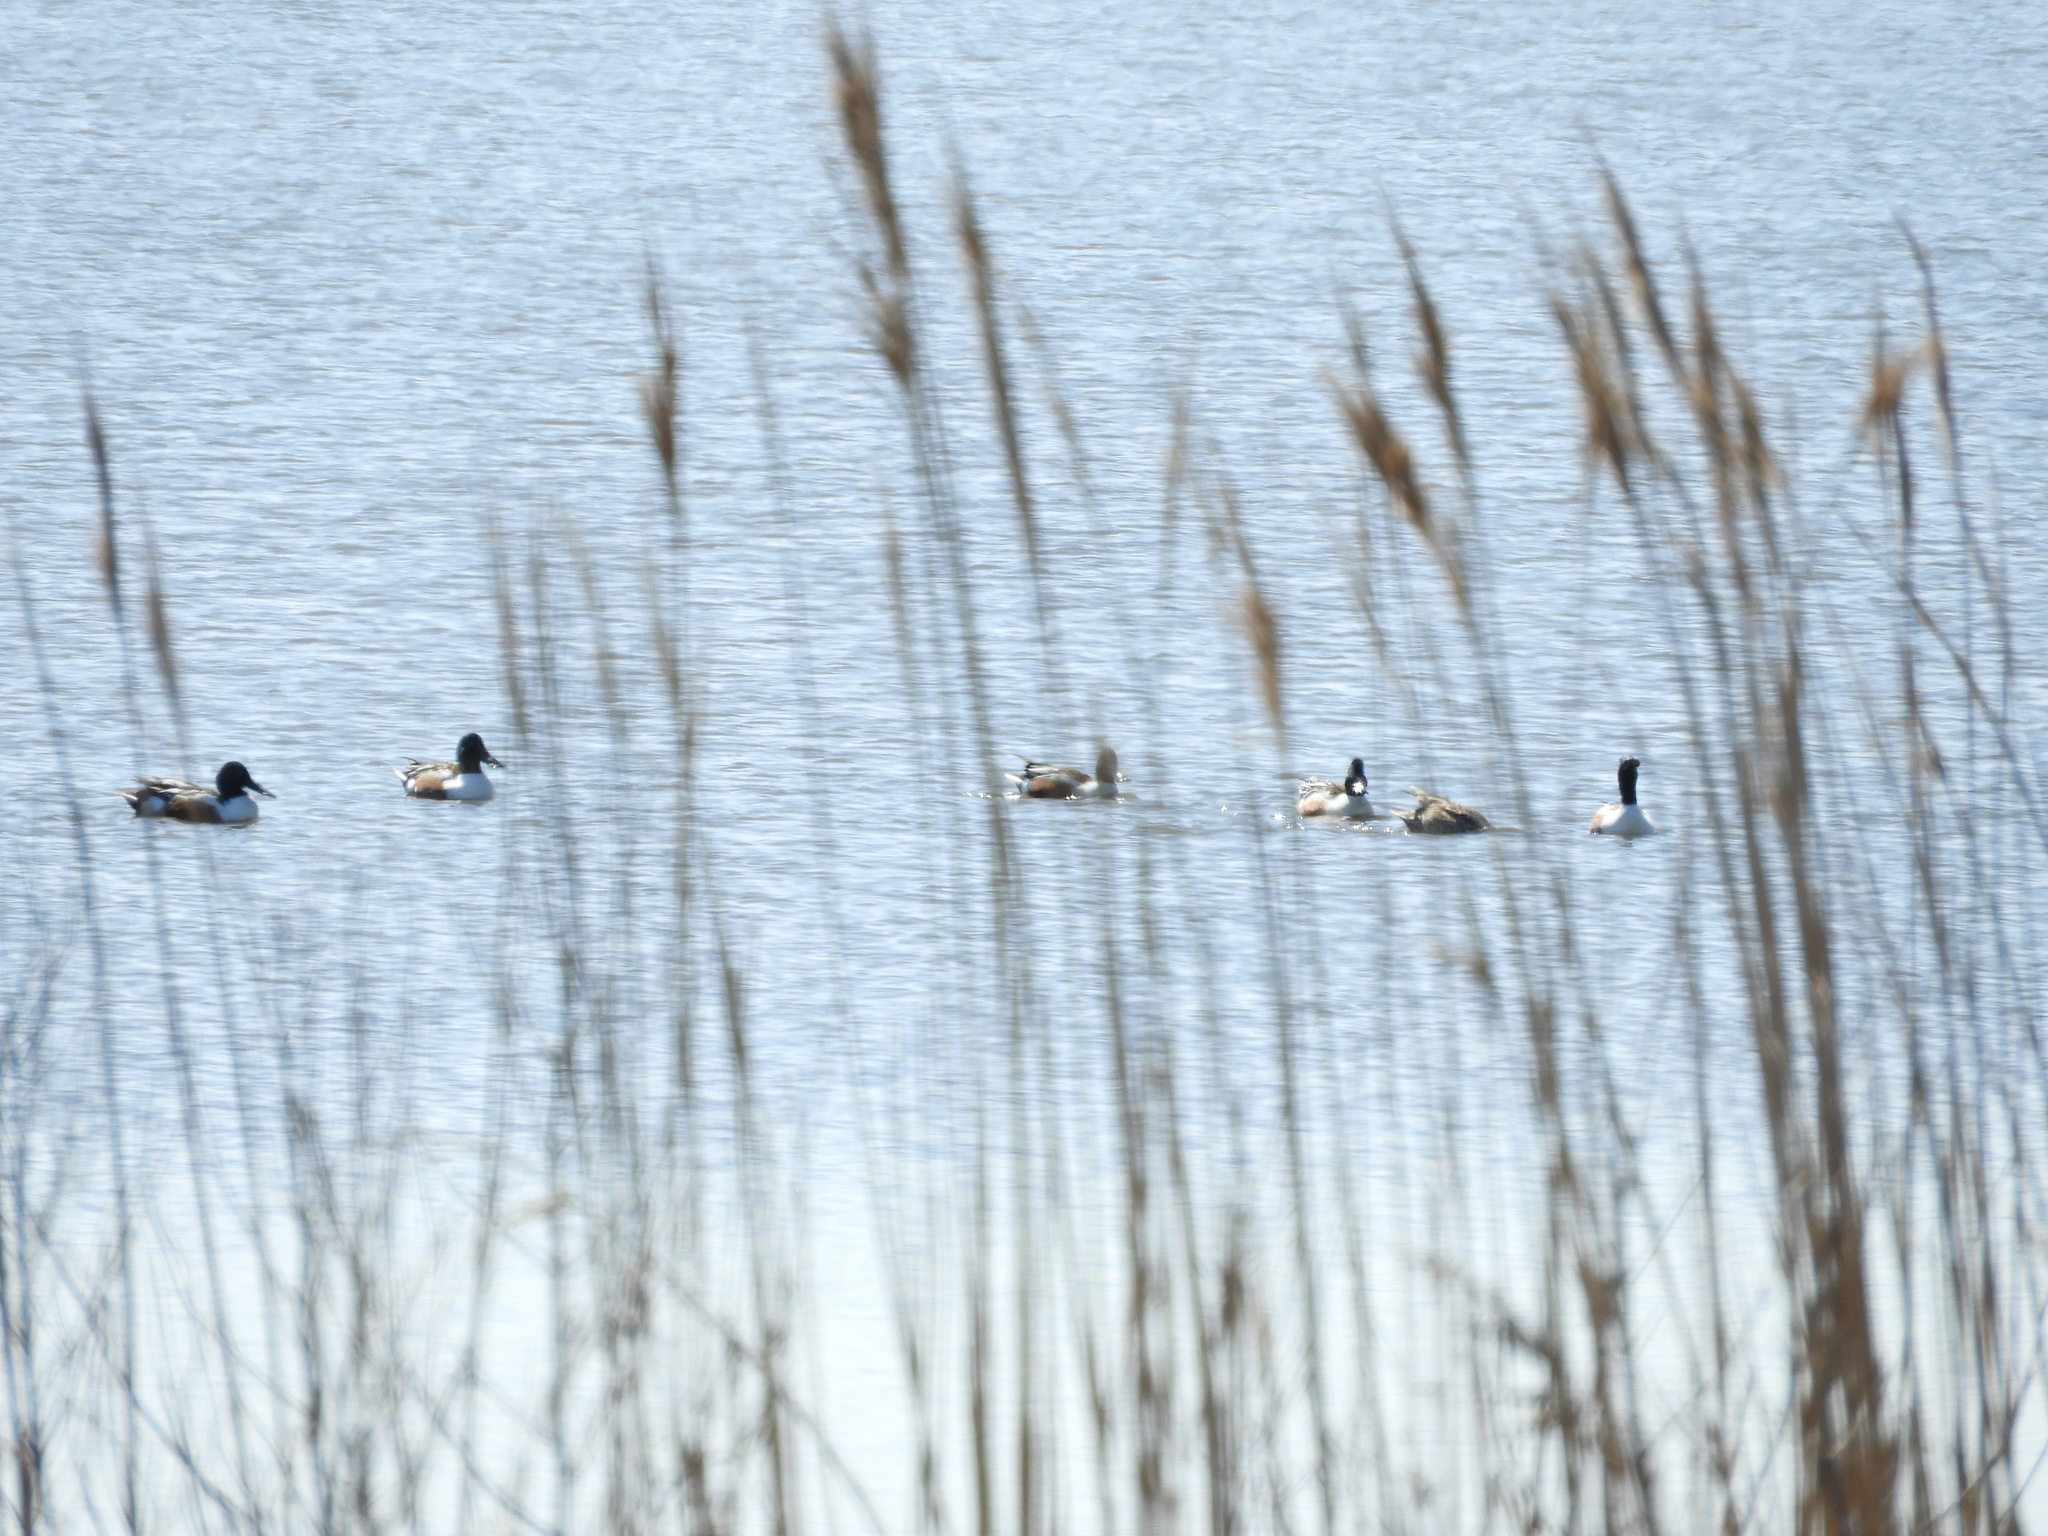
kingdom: Animalia
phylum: Chordata
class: Aves
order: Anseriformes
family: Anatidae
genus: Spatula
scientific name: Spatula clypeata
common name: Northern shoveler
